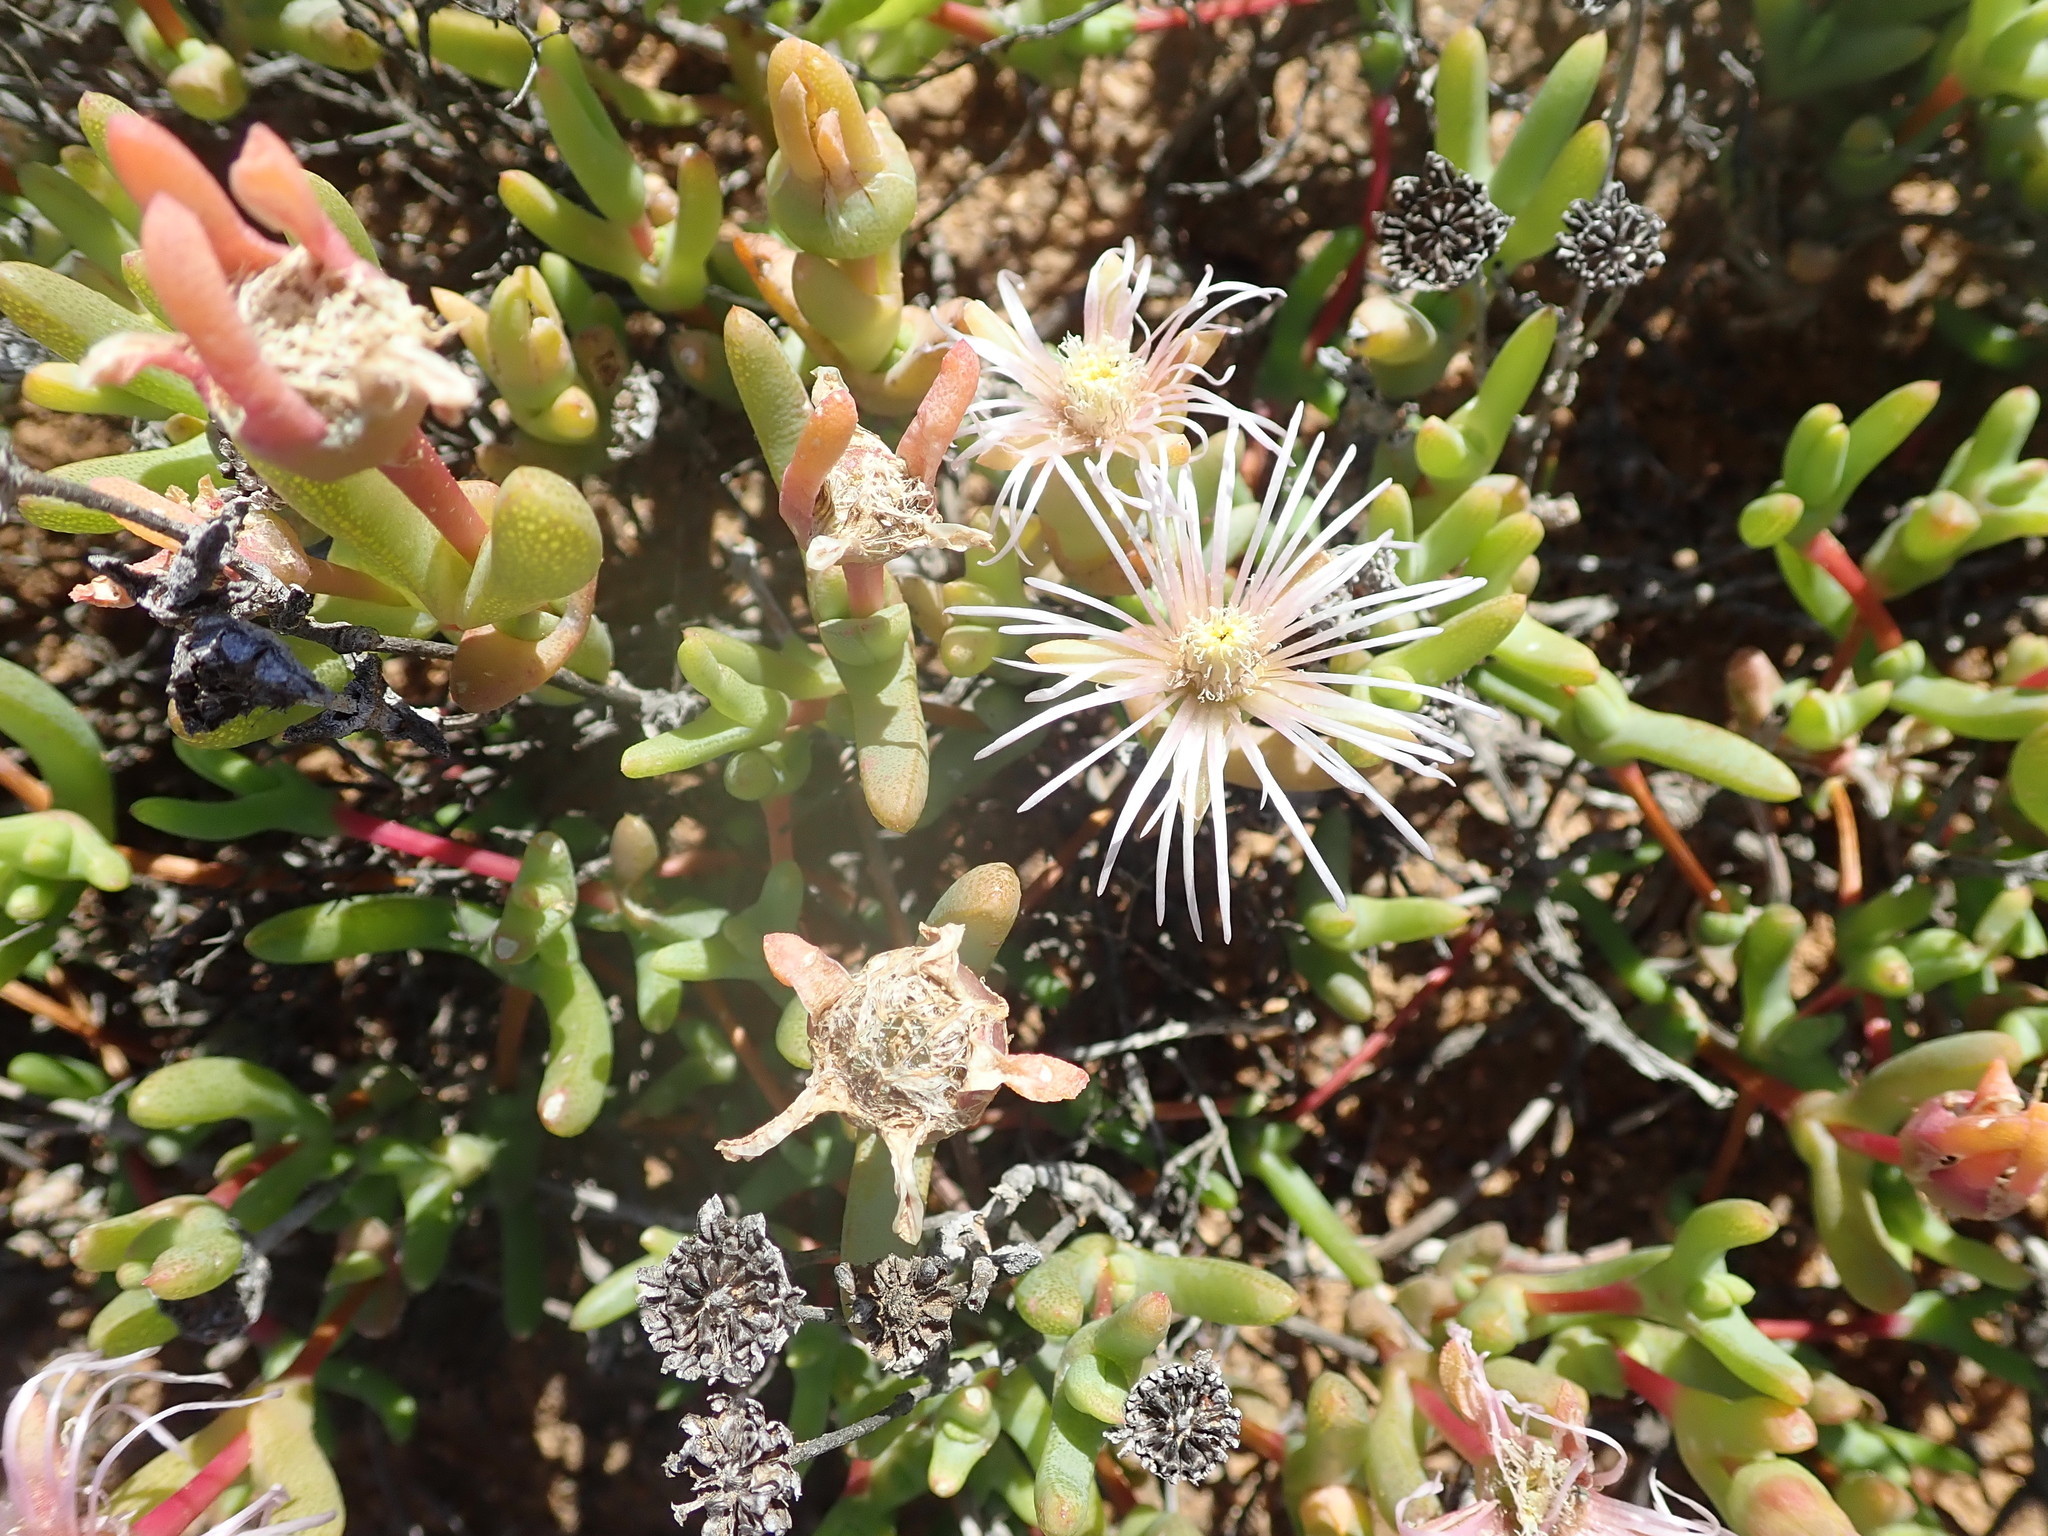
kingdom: Plantae
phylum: Tracheophyta
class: Magnoliopsida
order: Caryophyllales
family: Aizoaceae
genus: Vanzijlia
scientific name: Vanzijlia annulata
